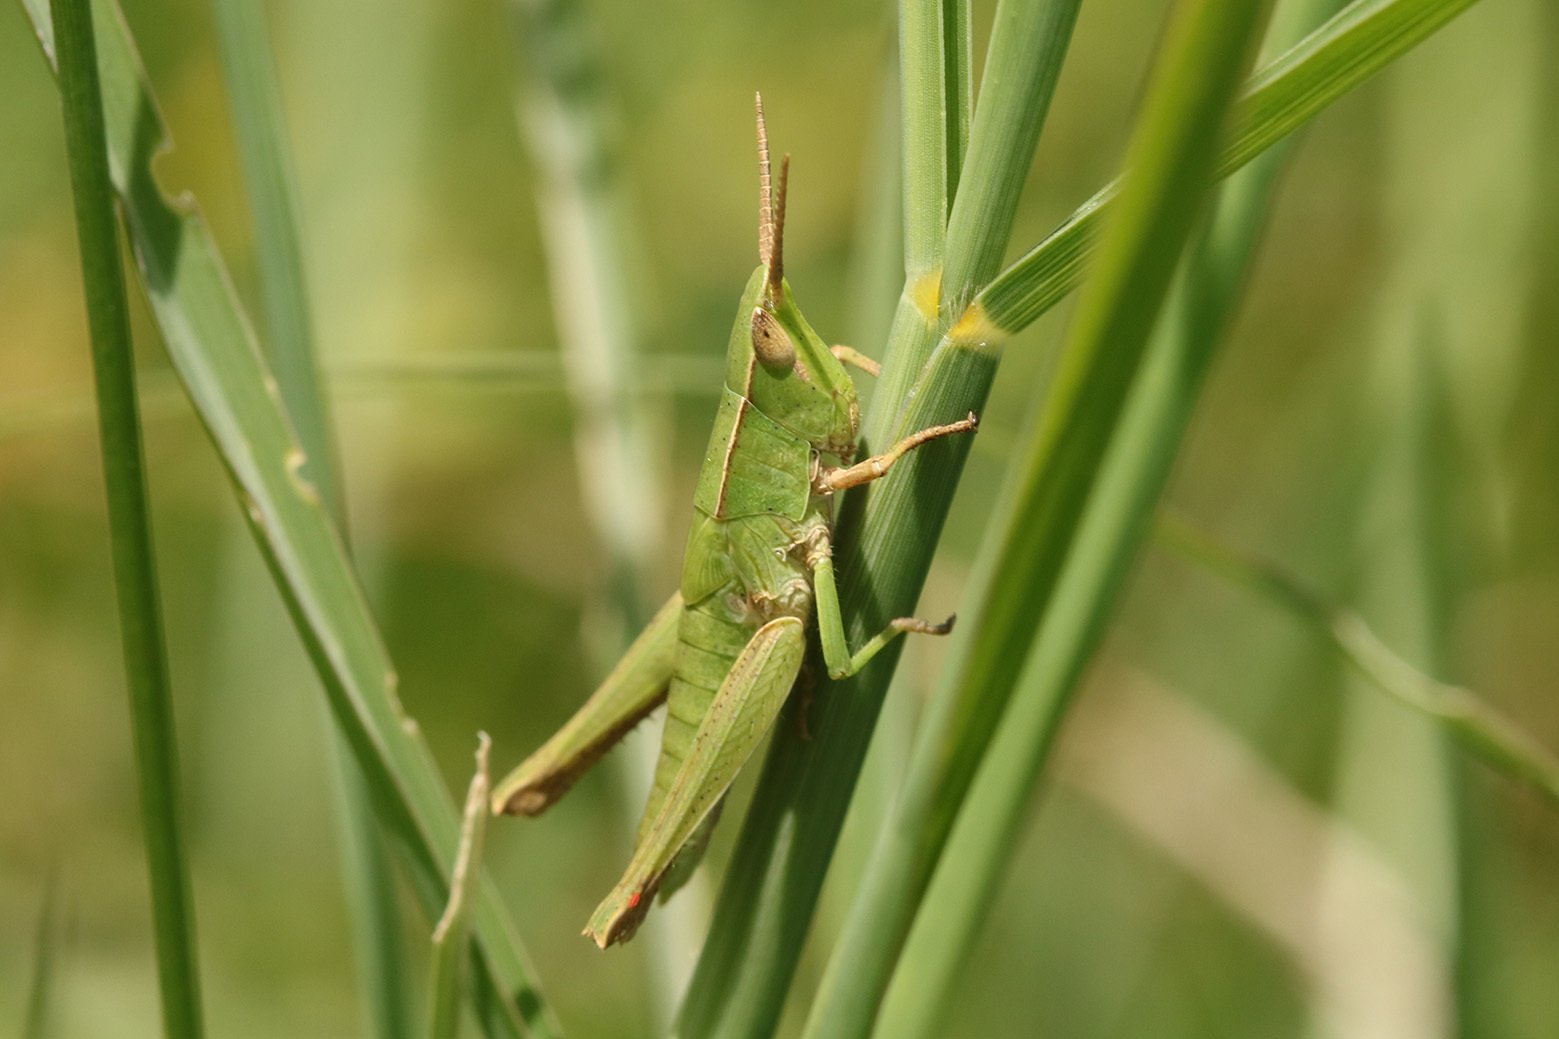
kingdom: Animalia
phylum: Arthropoda
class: Insecta
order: Orthoptera
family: Acrididae
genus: Metaleptea
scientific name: Metaleptea adspersa
